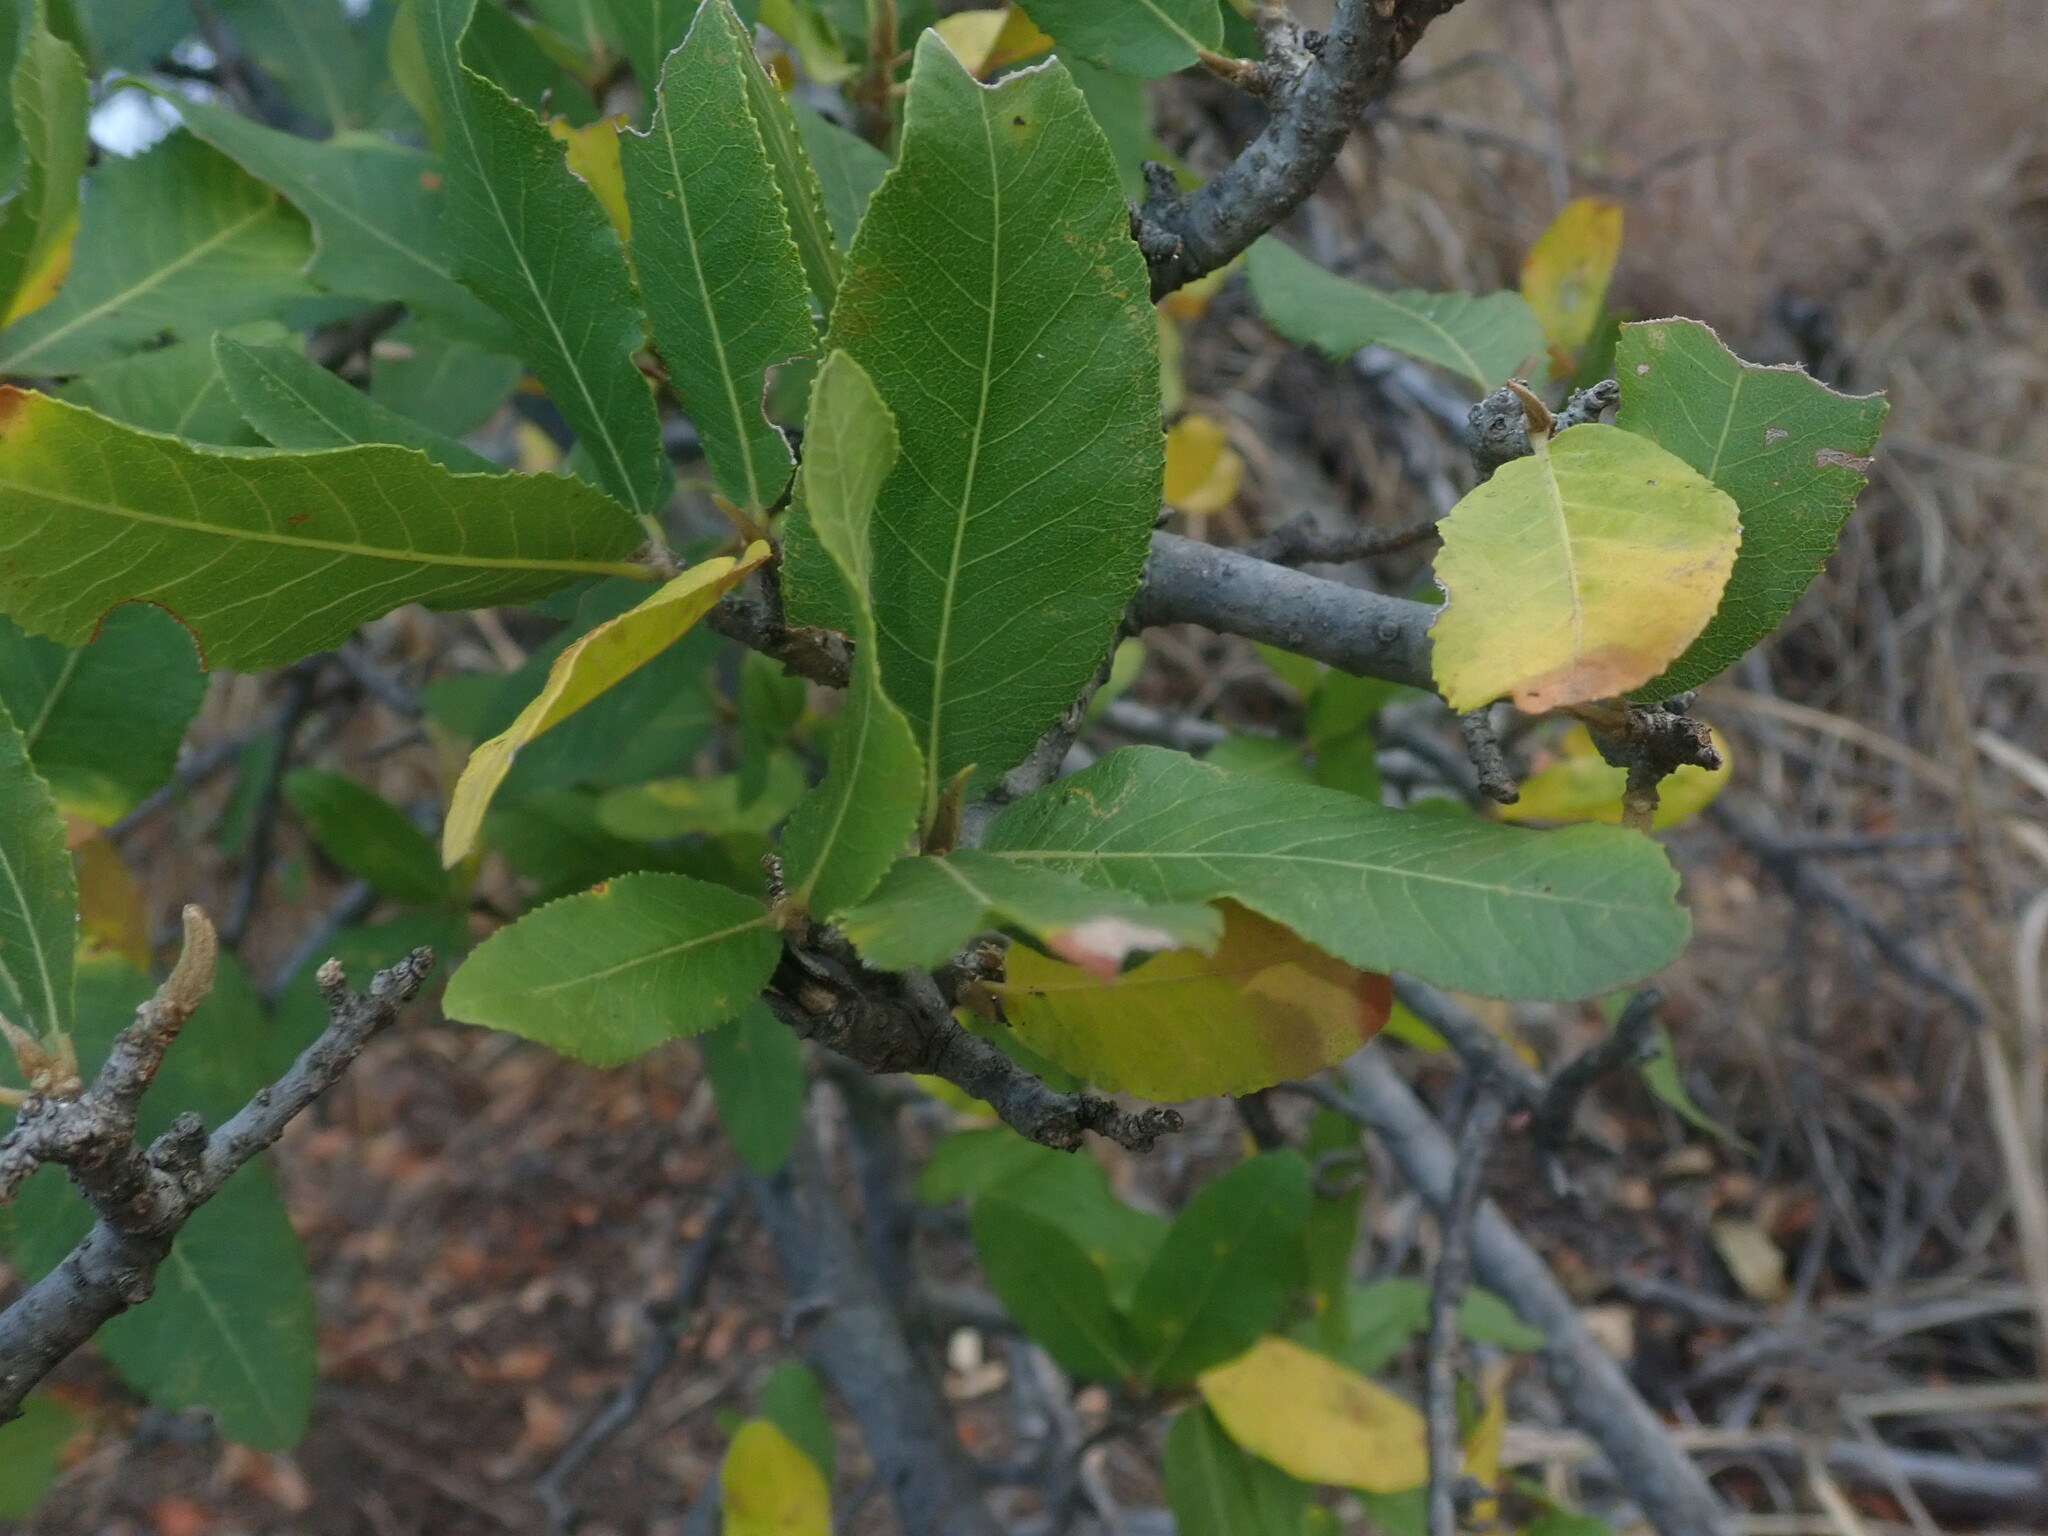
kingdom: Plantae
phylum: Tracheophyta
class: Magnoliopsida
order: Sapindales
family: Sapindaceae
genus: Pappea
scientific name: Pappea capensis
